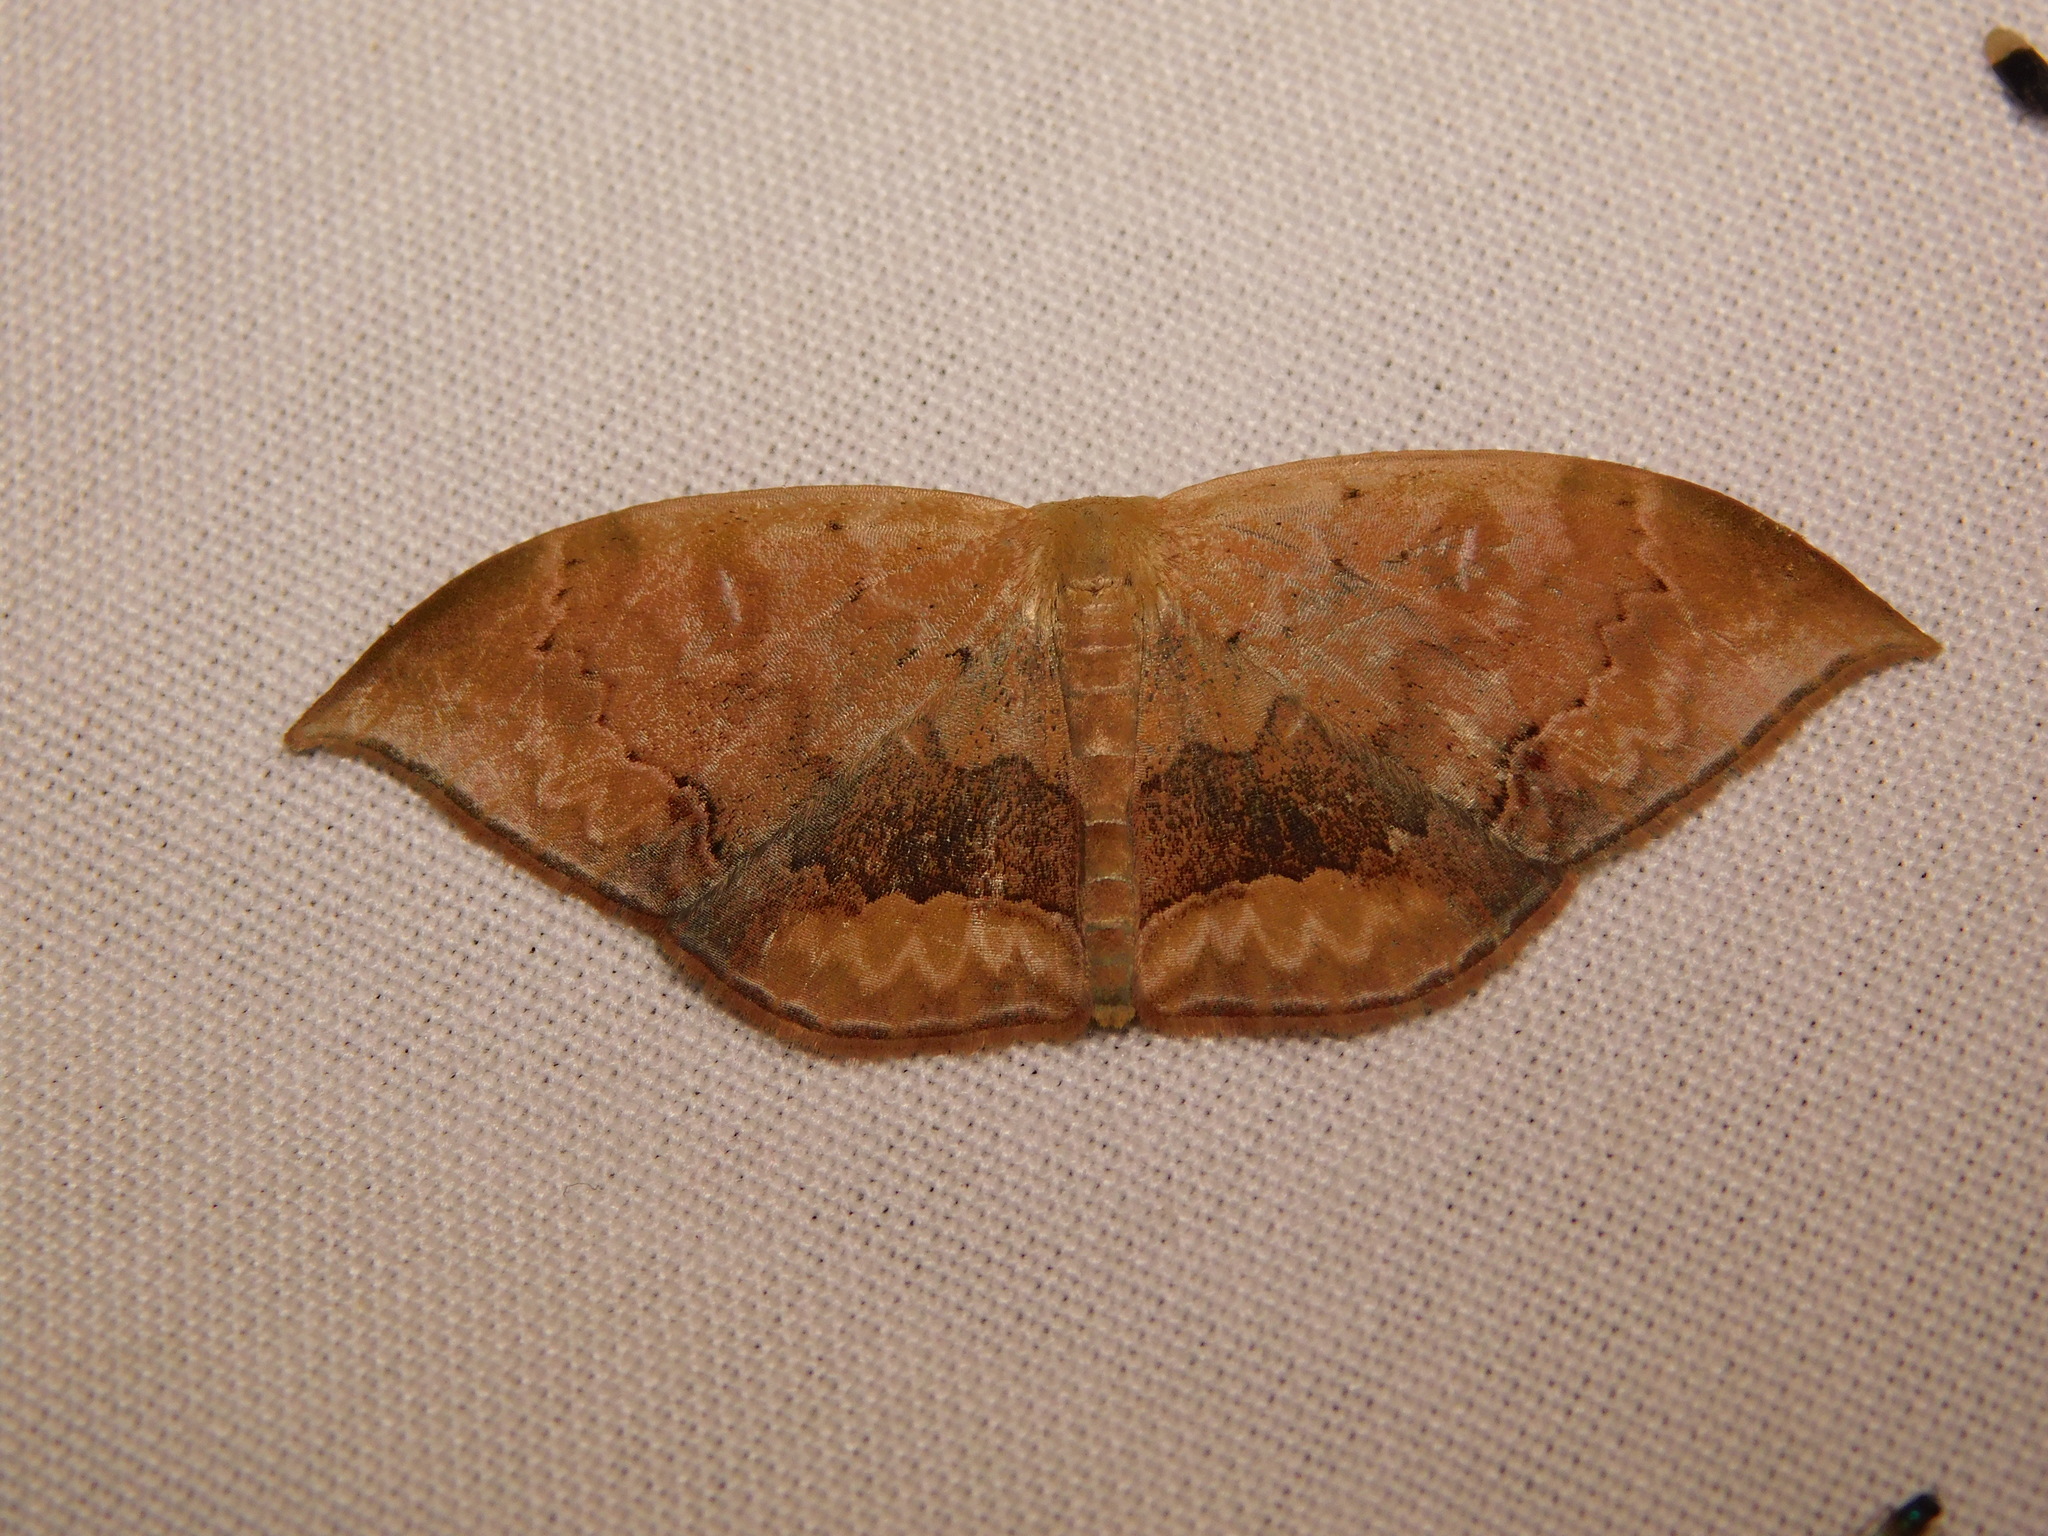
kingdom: Animalia
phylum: Arthropoda
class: Insecta
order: Lepidoptera
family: Geometridae
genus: Lissoblemma
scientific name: Lissoblemma lunuliferata
